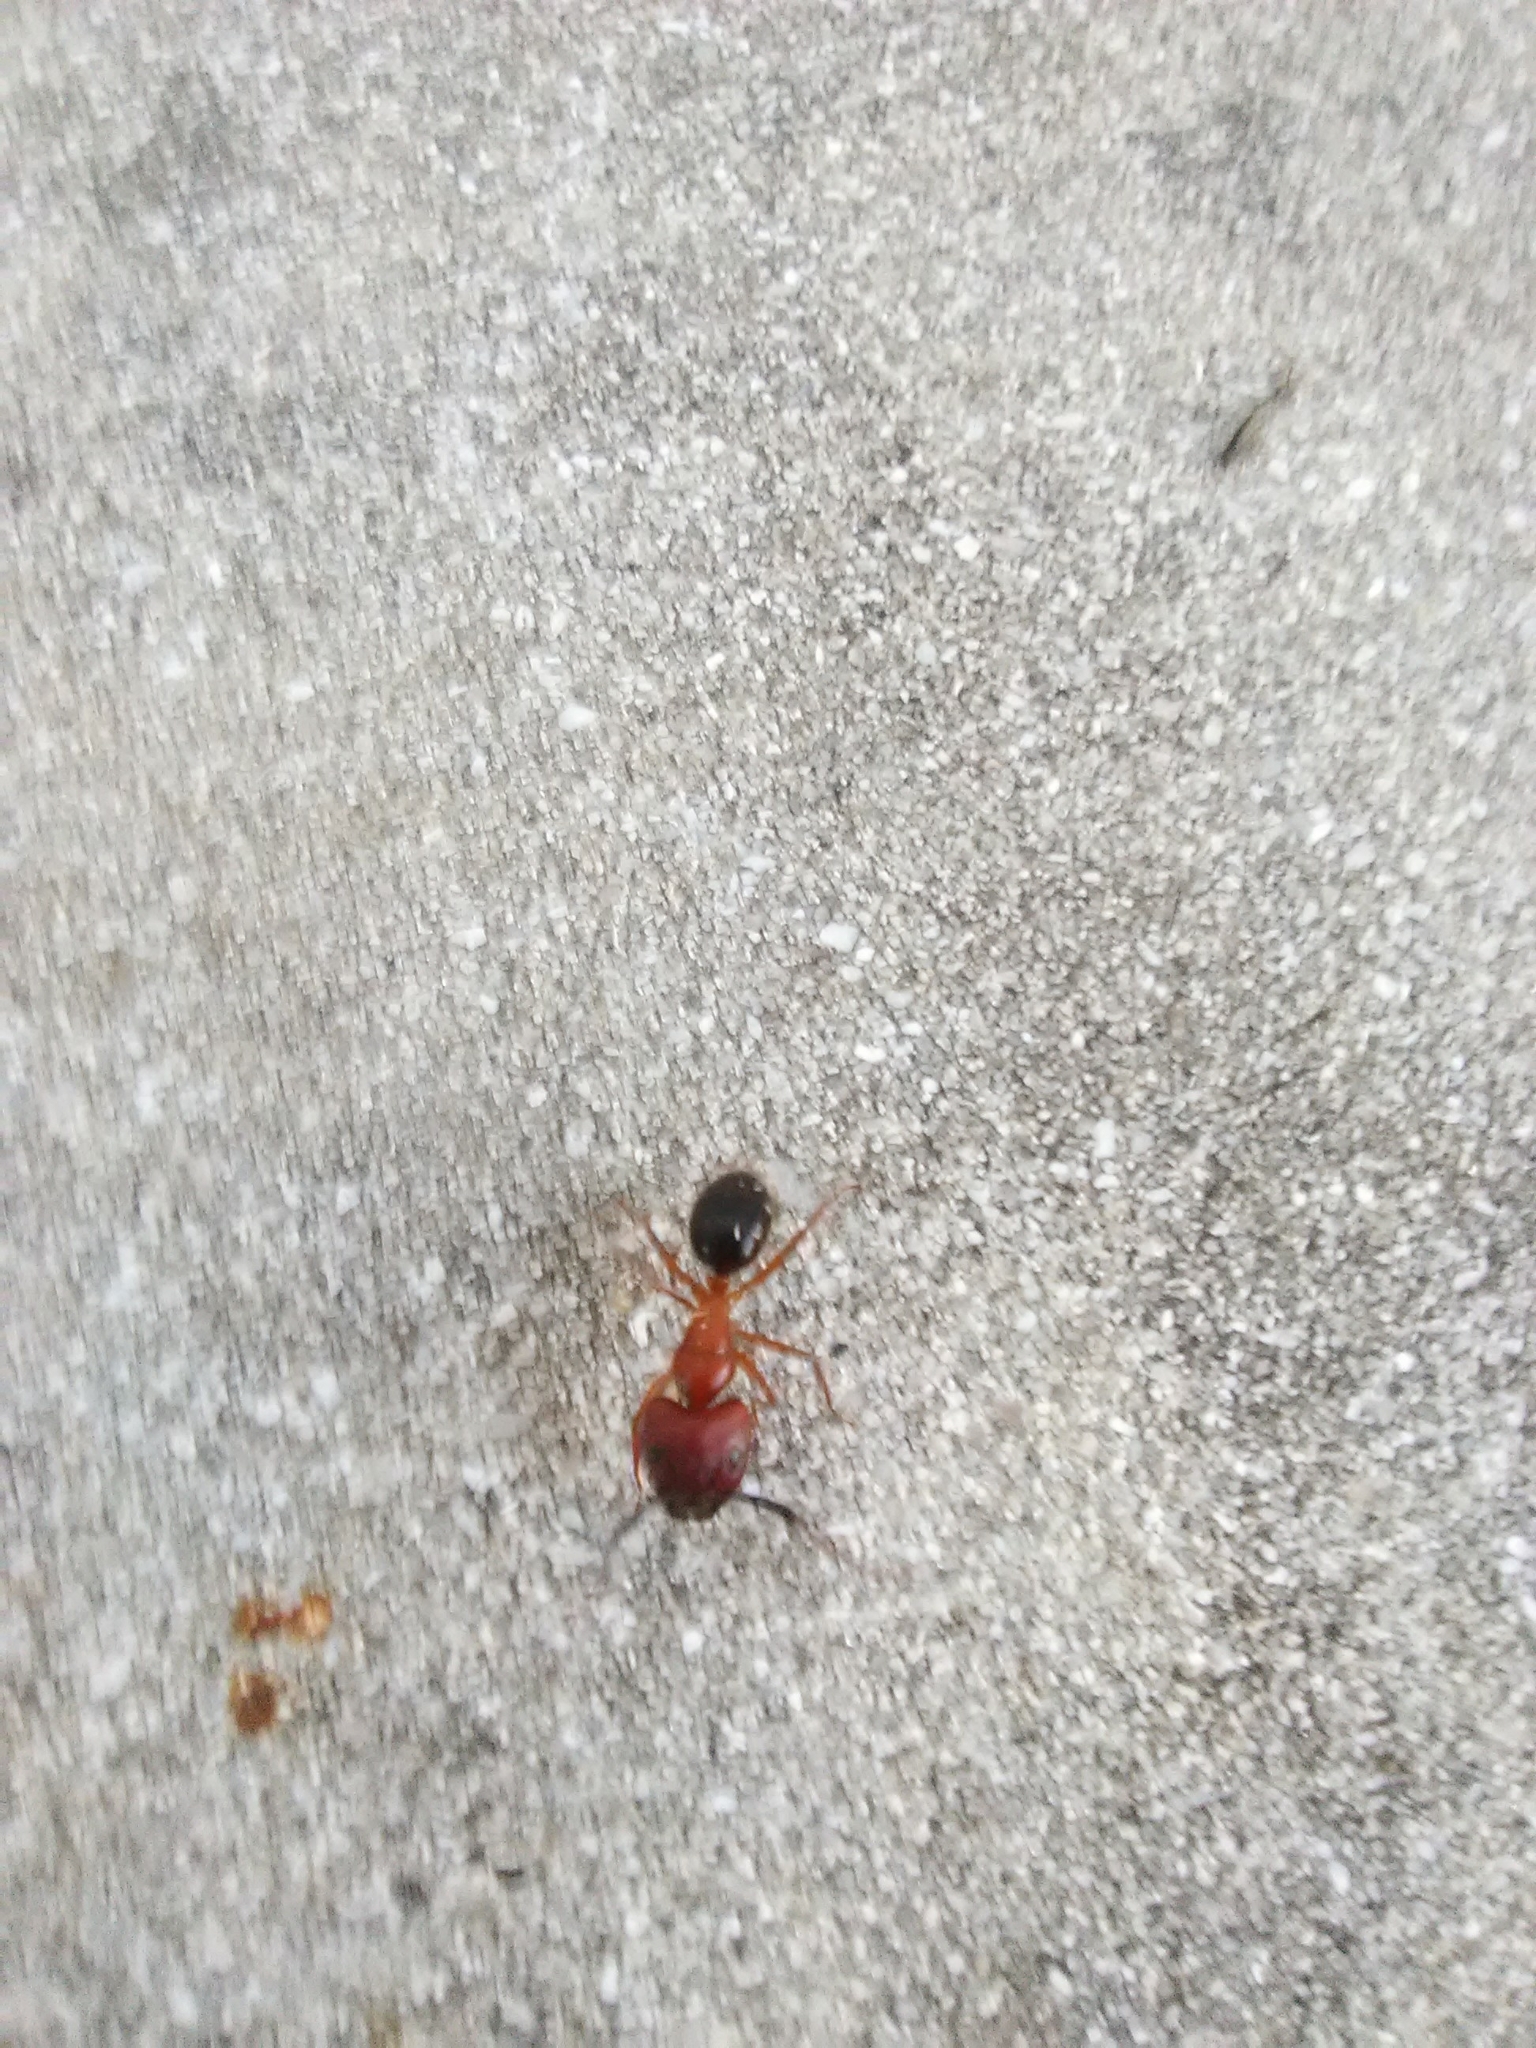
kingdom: Animalia
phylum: Arthropoda
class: Insecta
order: Hymenoptera
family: Formicidae
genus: Camponotus
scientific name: Camponotus floridanus
